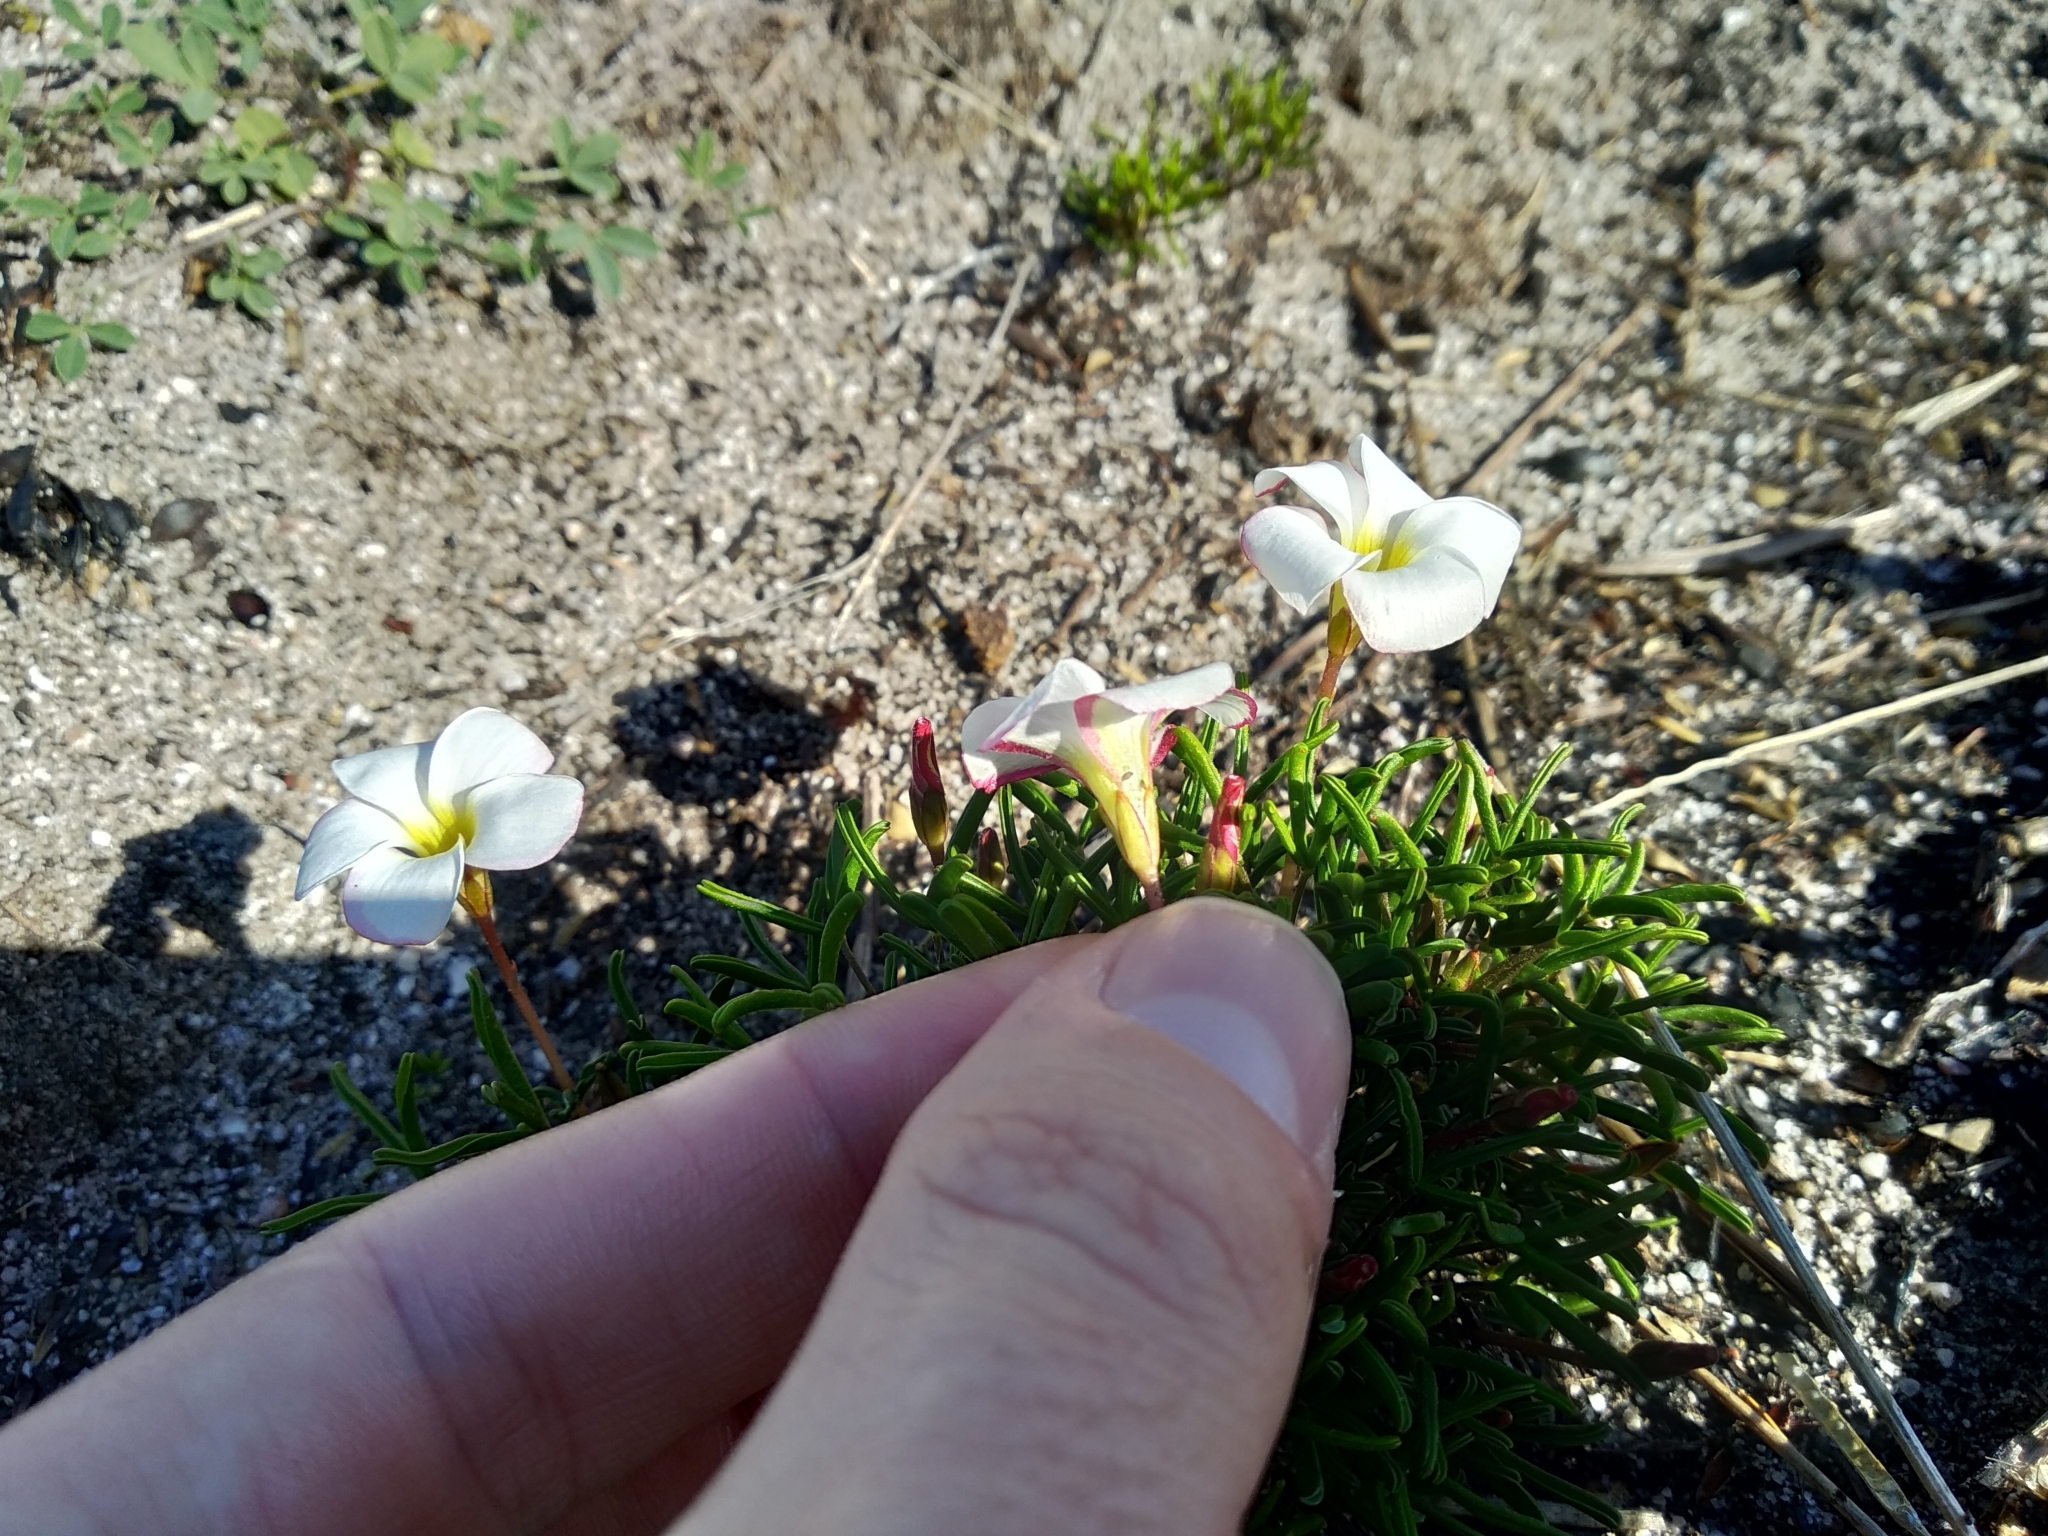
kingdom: Plantae
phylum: Tracheophyta
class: Magnoliopsida
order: Oxalidales
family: Oxalidaceae
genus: Oxalis
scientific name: Oxalis versicolor
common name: Peppermint rock oxalis
